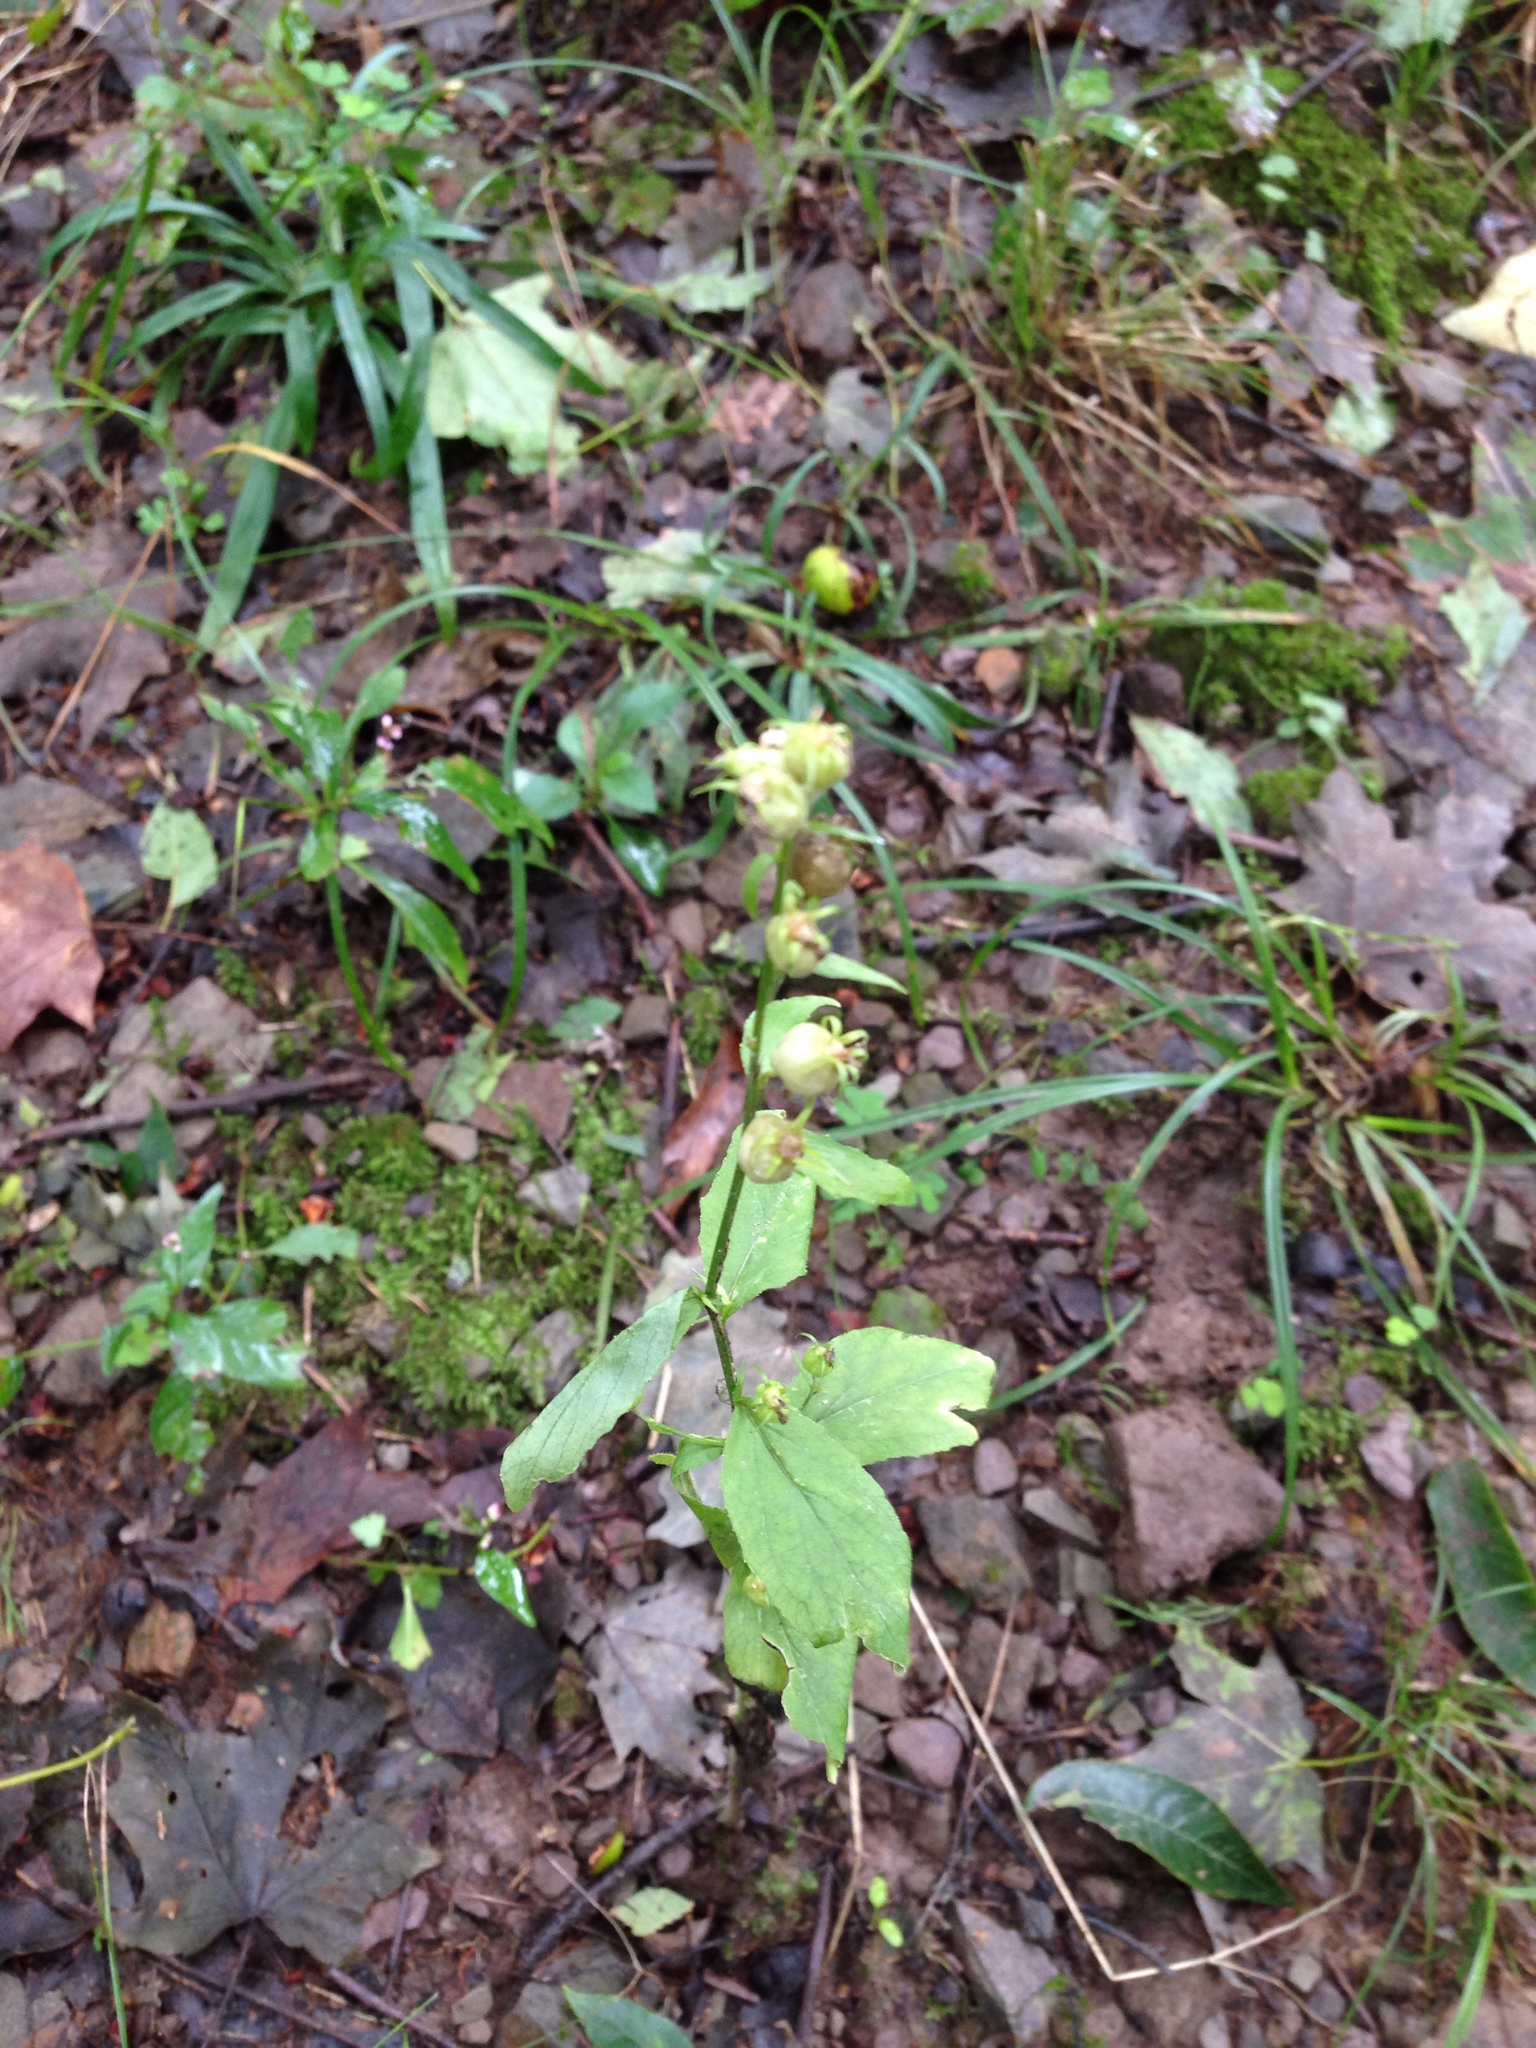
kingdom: Plantae
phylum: Tracheophyta
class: Magnoliopsida
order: Asterales
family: Campanulaceae
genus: Lobelia
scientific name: Lobelia inflata
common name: Indian tobacco
